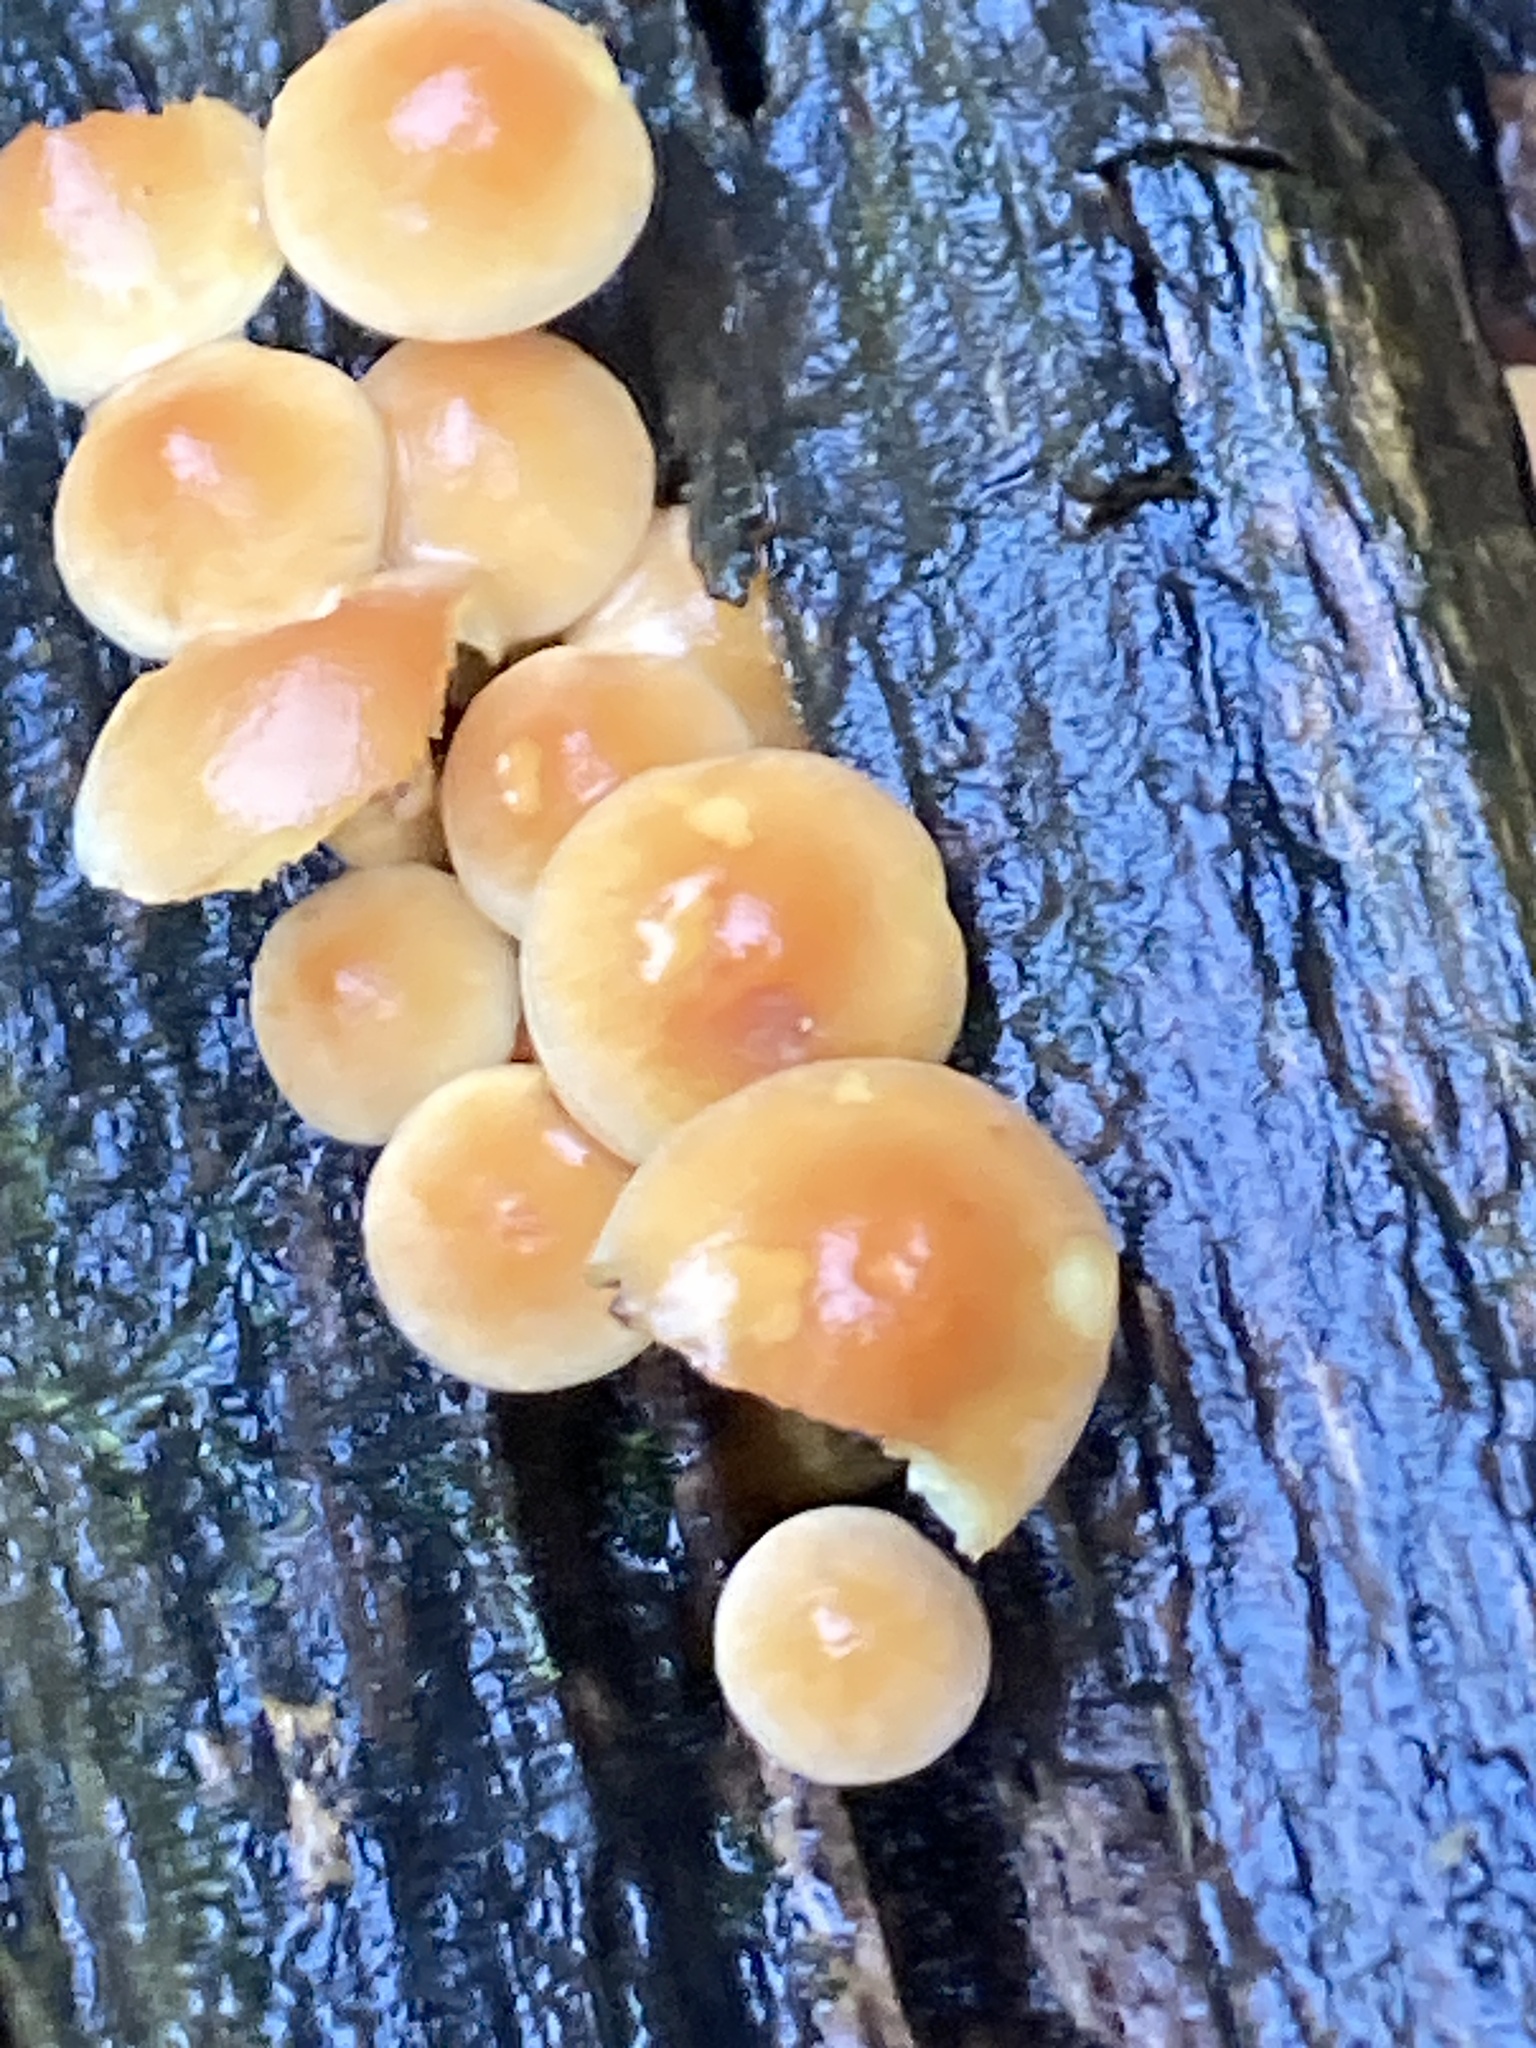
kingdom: Fungi
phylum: Basidiomycota
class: Agaricomycetes
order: Agaricales
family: Strophariaceae
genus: Hypholoma
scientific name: Hypholoma fasciculare
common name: Sulphur tuft
